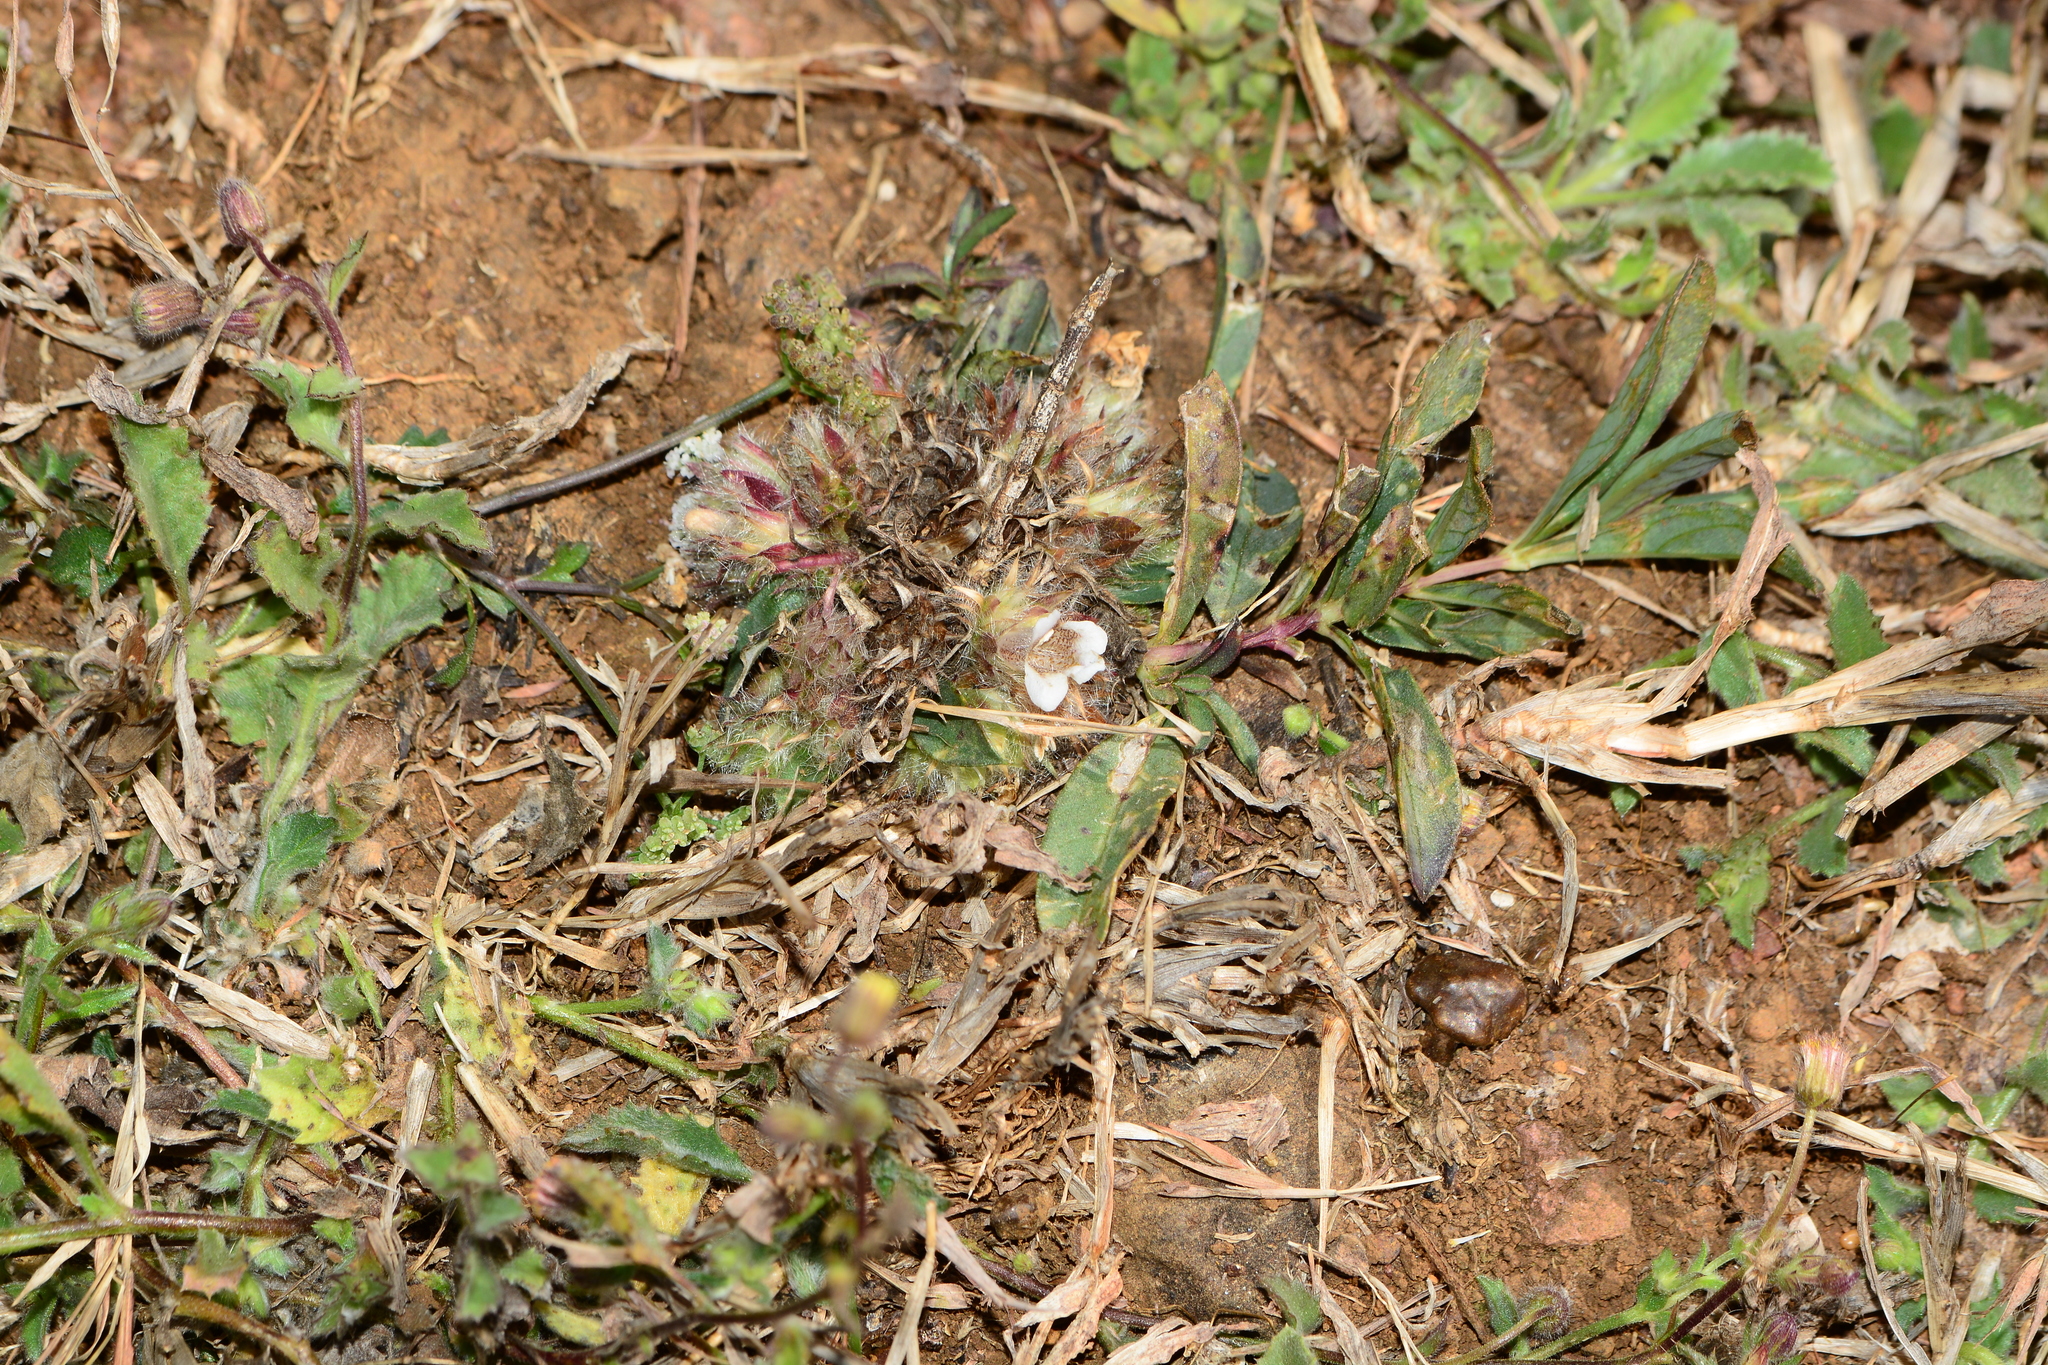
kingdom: Plantae
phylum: Tracheophyta
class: Magnoliopsida
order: Lamiales
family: Acanthaceae
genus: Lepidagathis
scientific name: Lepidagathis mitis
